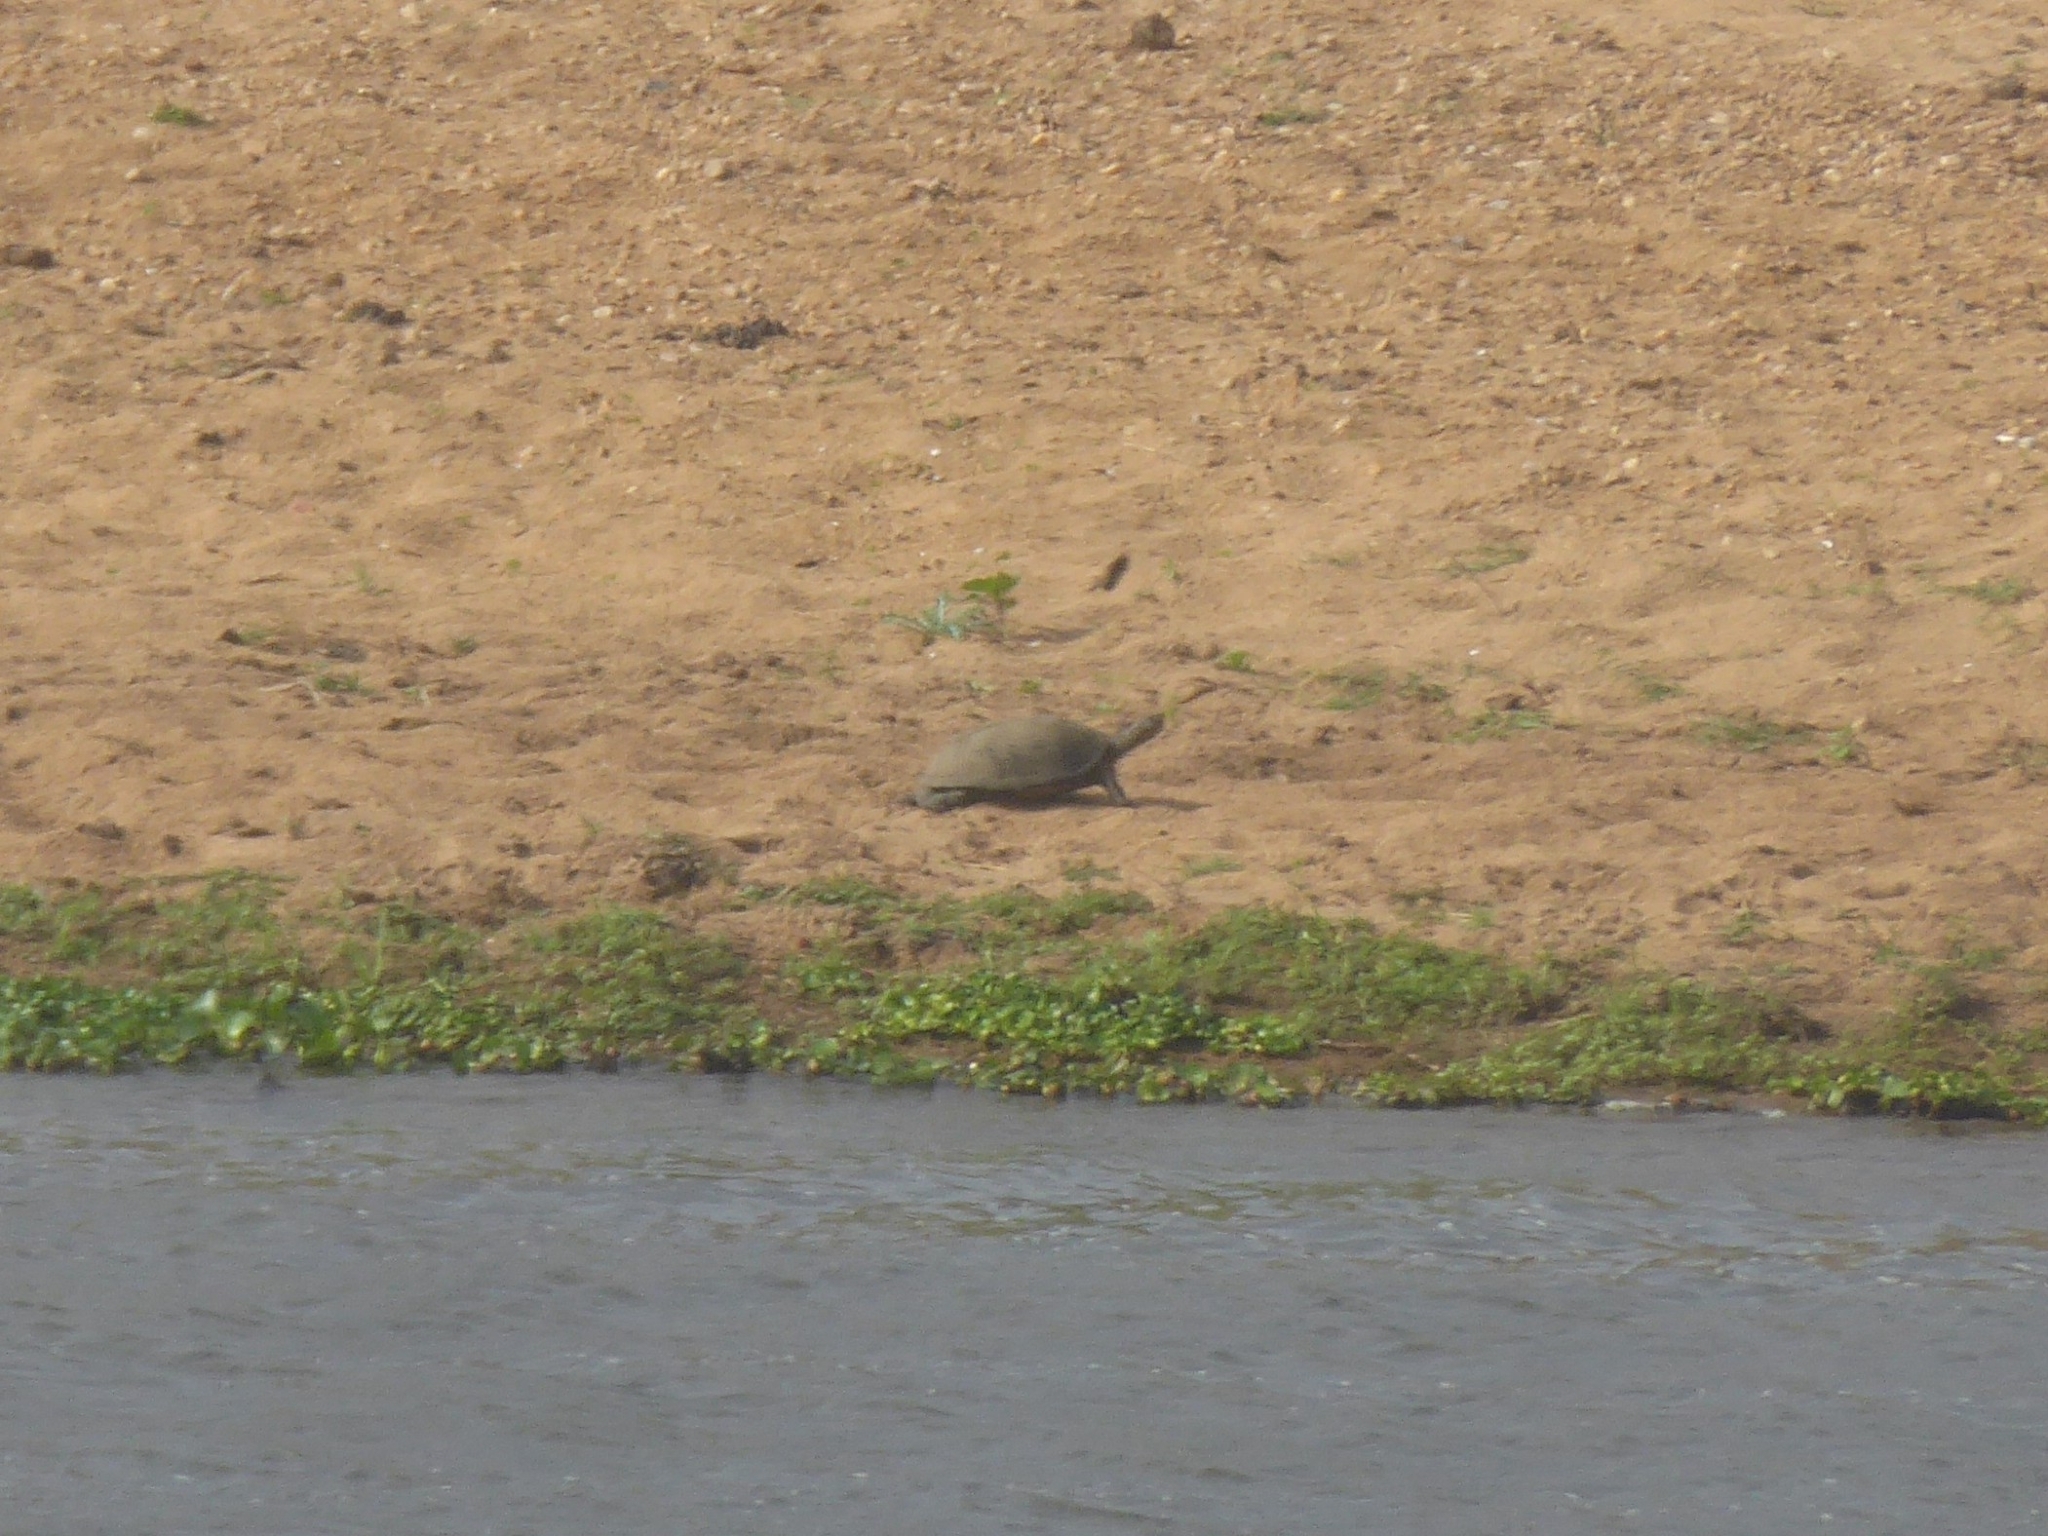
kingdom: Animalia
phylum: Chordata
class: Testudines
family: Pelomedusidae
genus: Pelusios
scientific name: Pelusios sinuatus
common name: Serrated hinged terrapin
